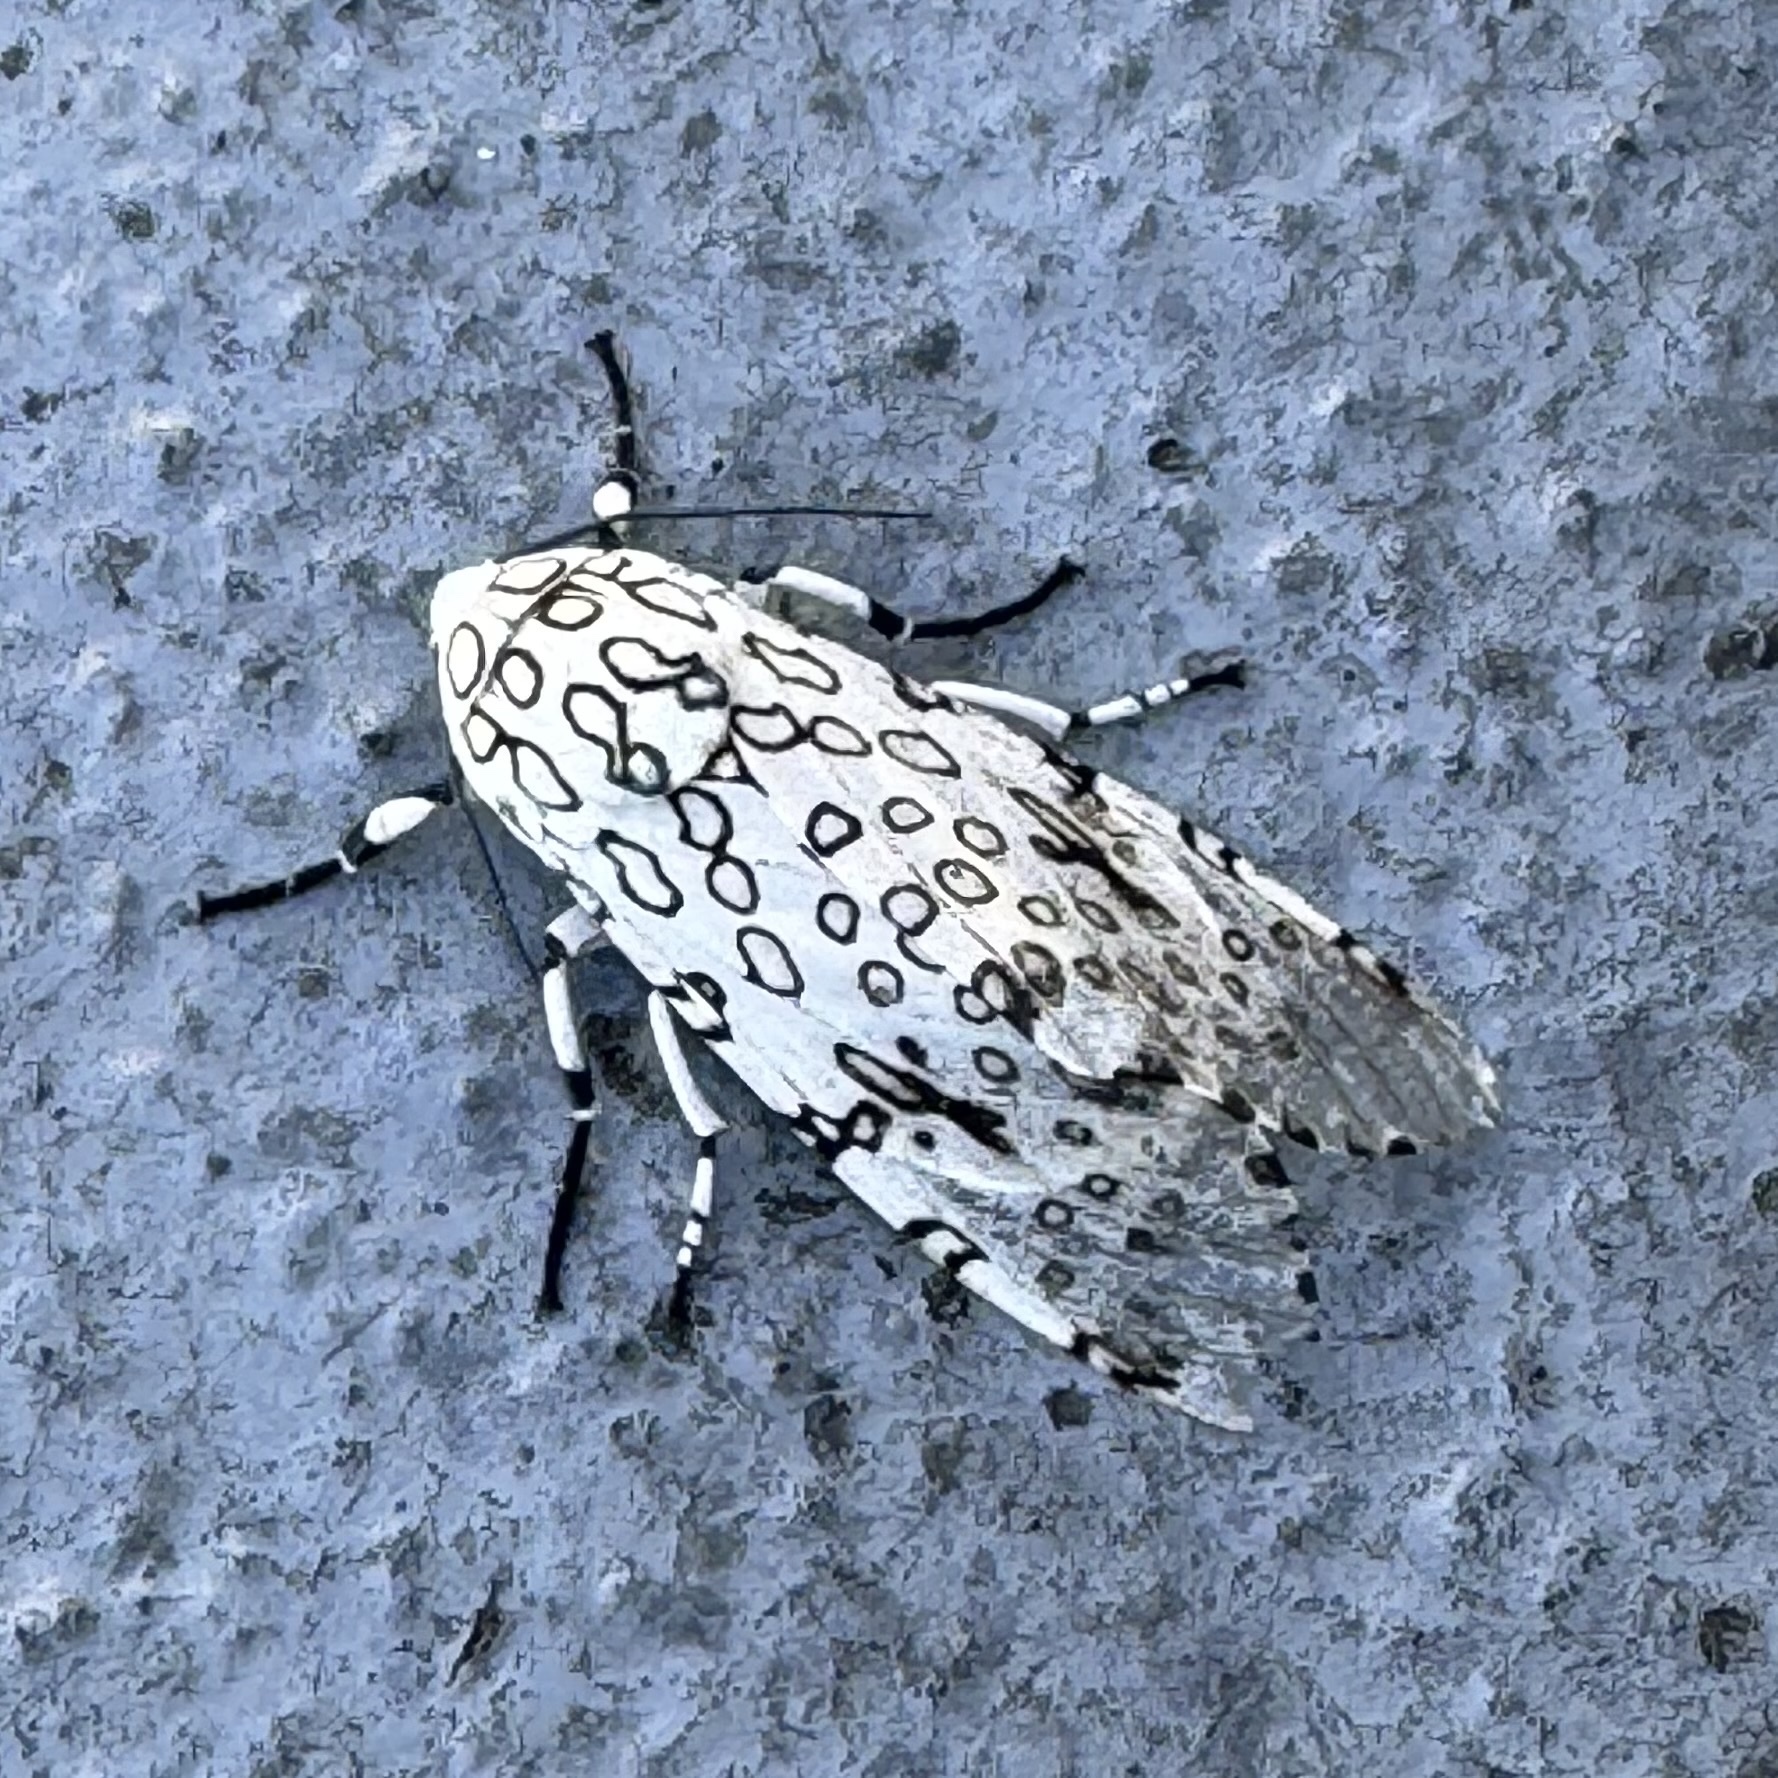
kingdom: Animalia
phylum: Arthropoda
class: Insecta
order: Lepidoptera
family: Erebidae
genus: Hypercompe
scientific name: Hypercompe scribonia
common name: Giant leopard moth
